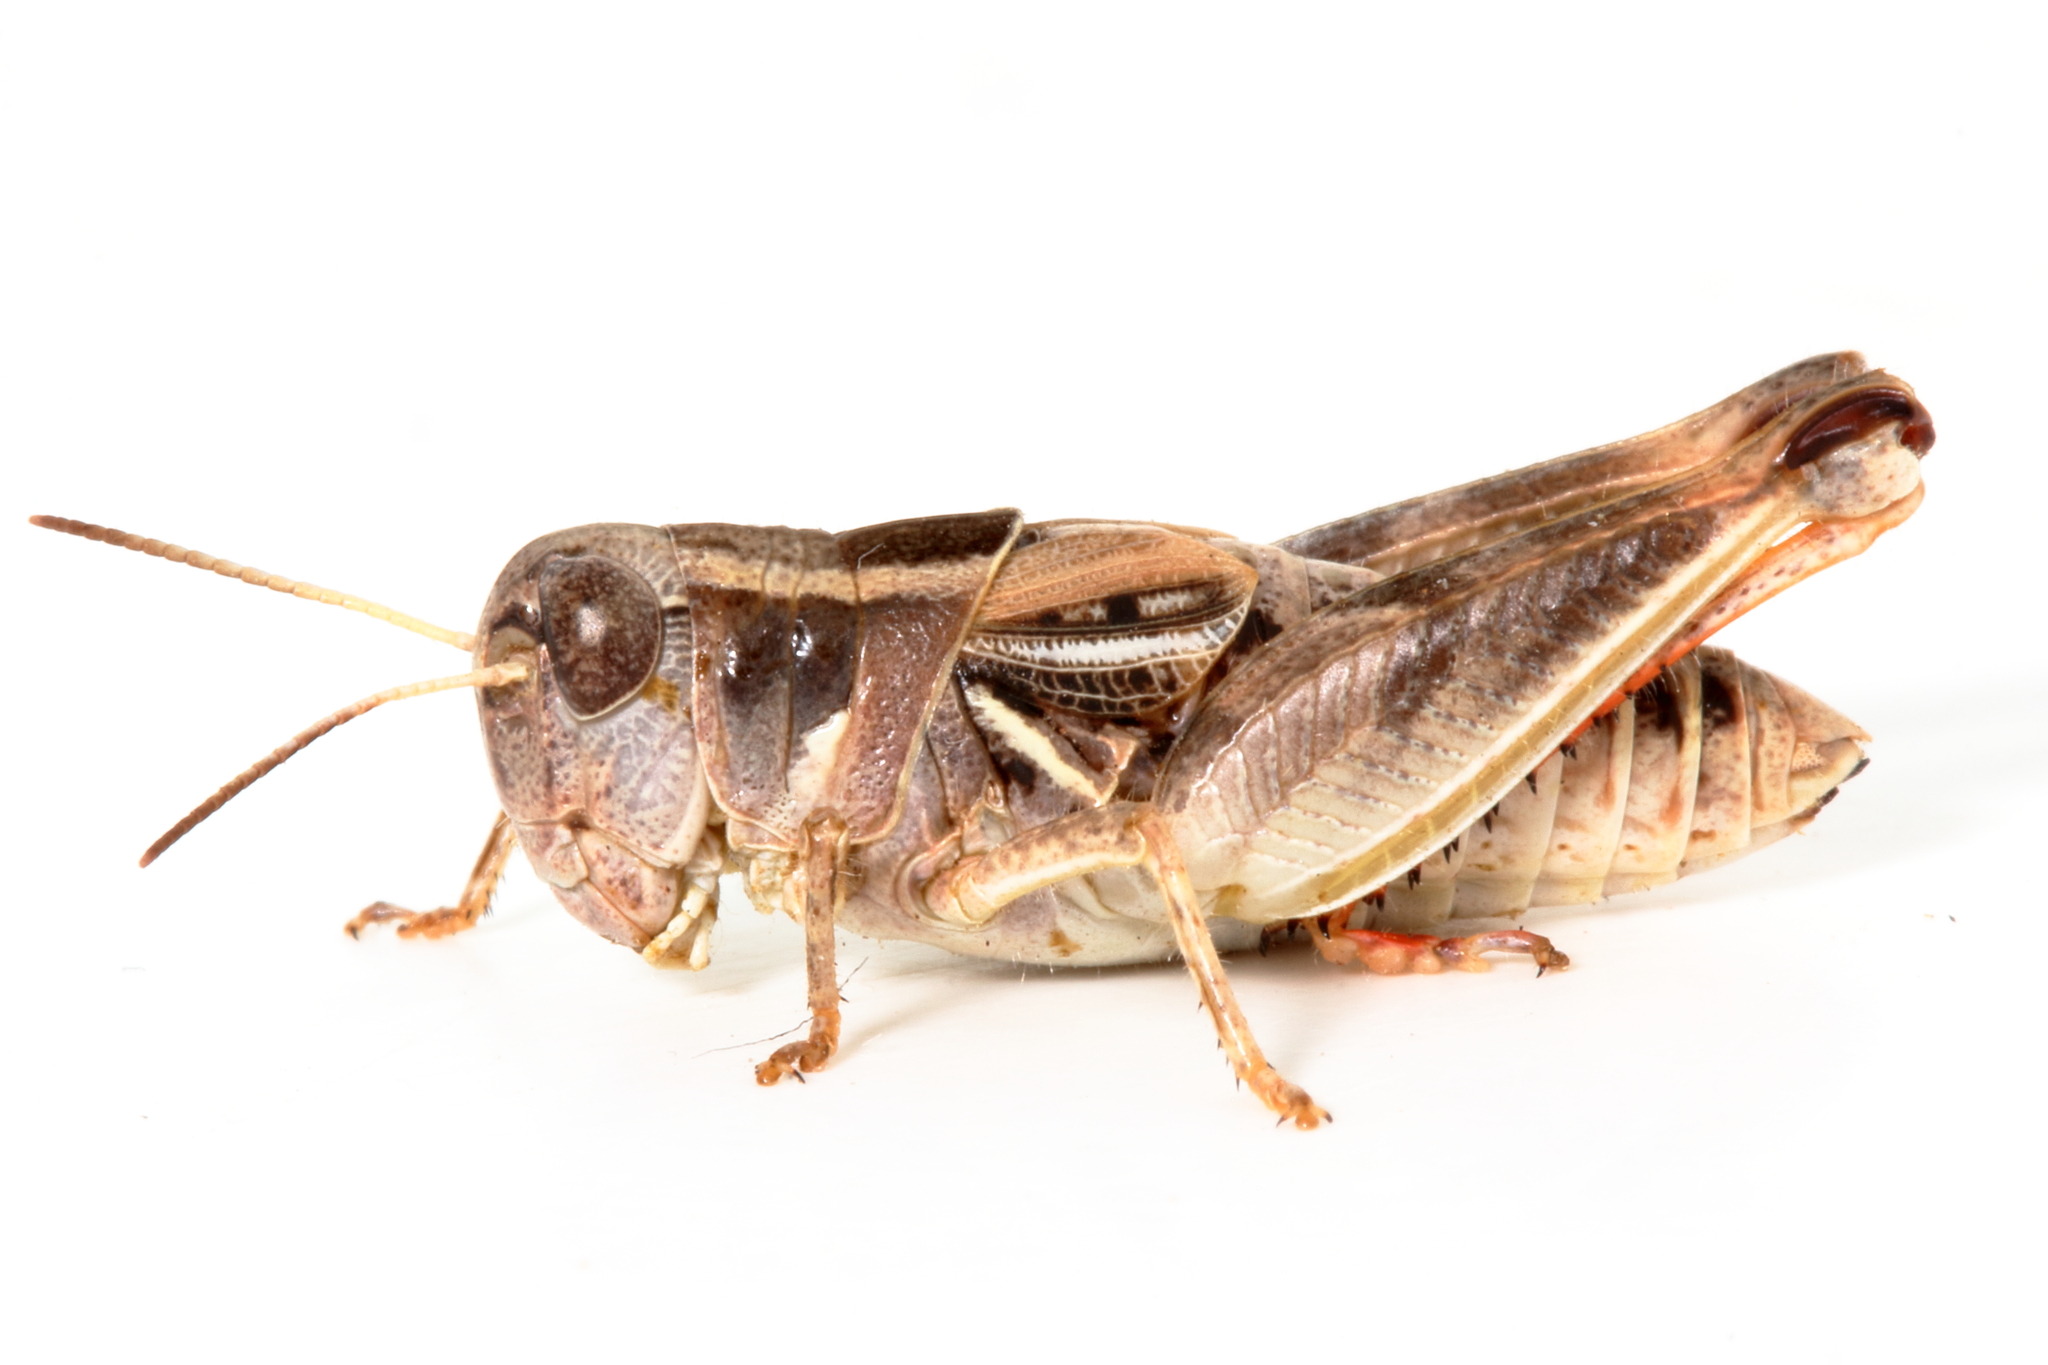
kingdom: Animalia
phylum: Arthropoda
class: Insecta
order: Orthoptera
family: Acrididae
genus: Brachyexarna
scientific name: Brachyexarna lobipennis
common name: Stripe-winged meadow grasshopper
